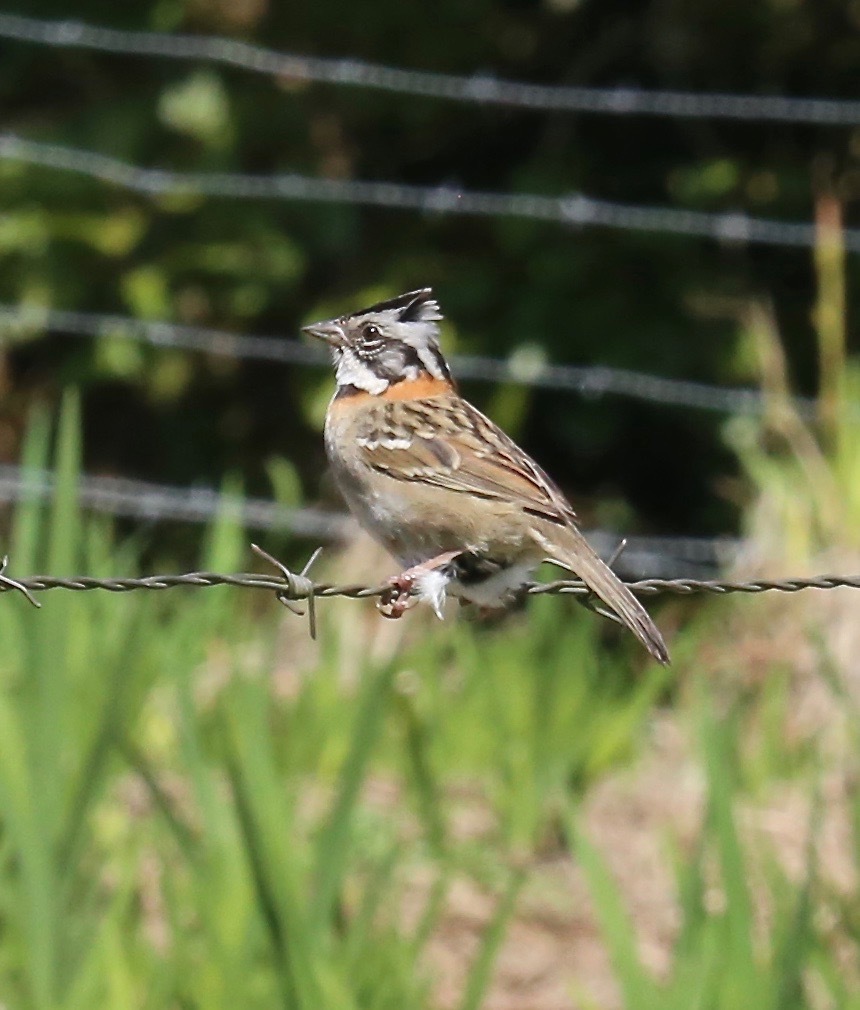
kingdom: Animalia
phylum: Chordata
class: Aves
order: Passeriformes
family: Passerellidae
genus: Zonotrichia
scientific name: Zonotrichia capensis
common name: Rufous-collared sparrow
